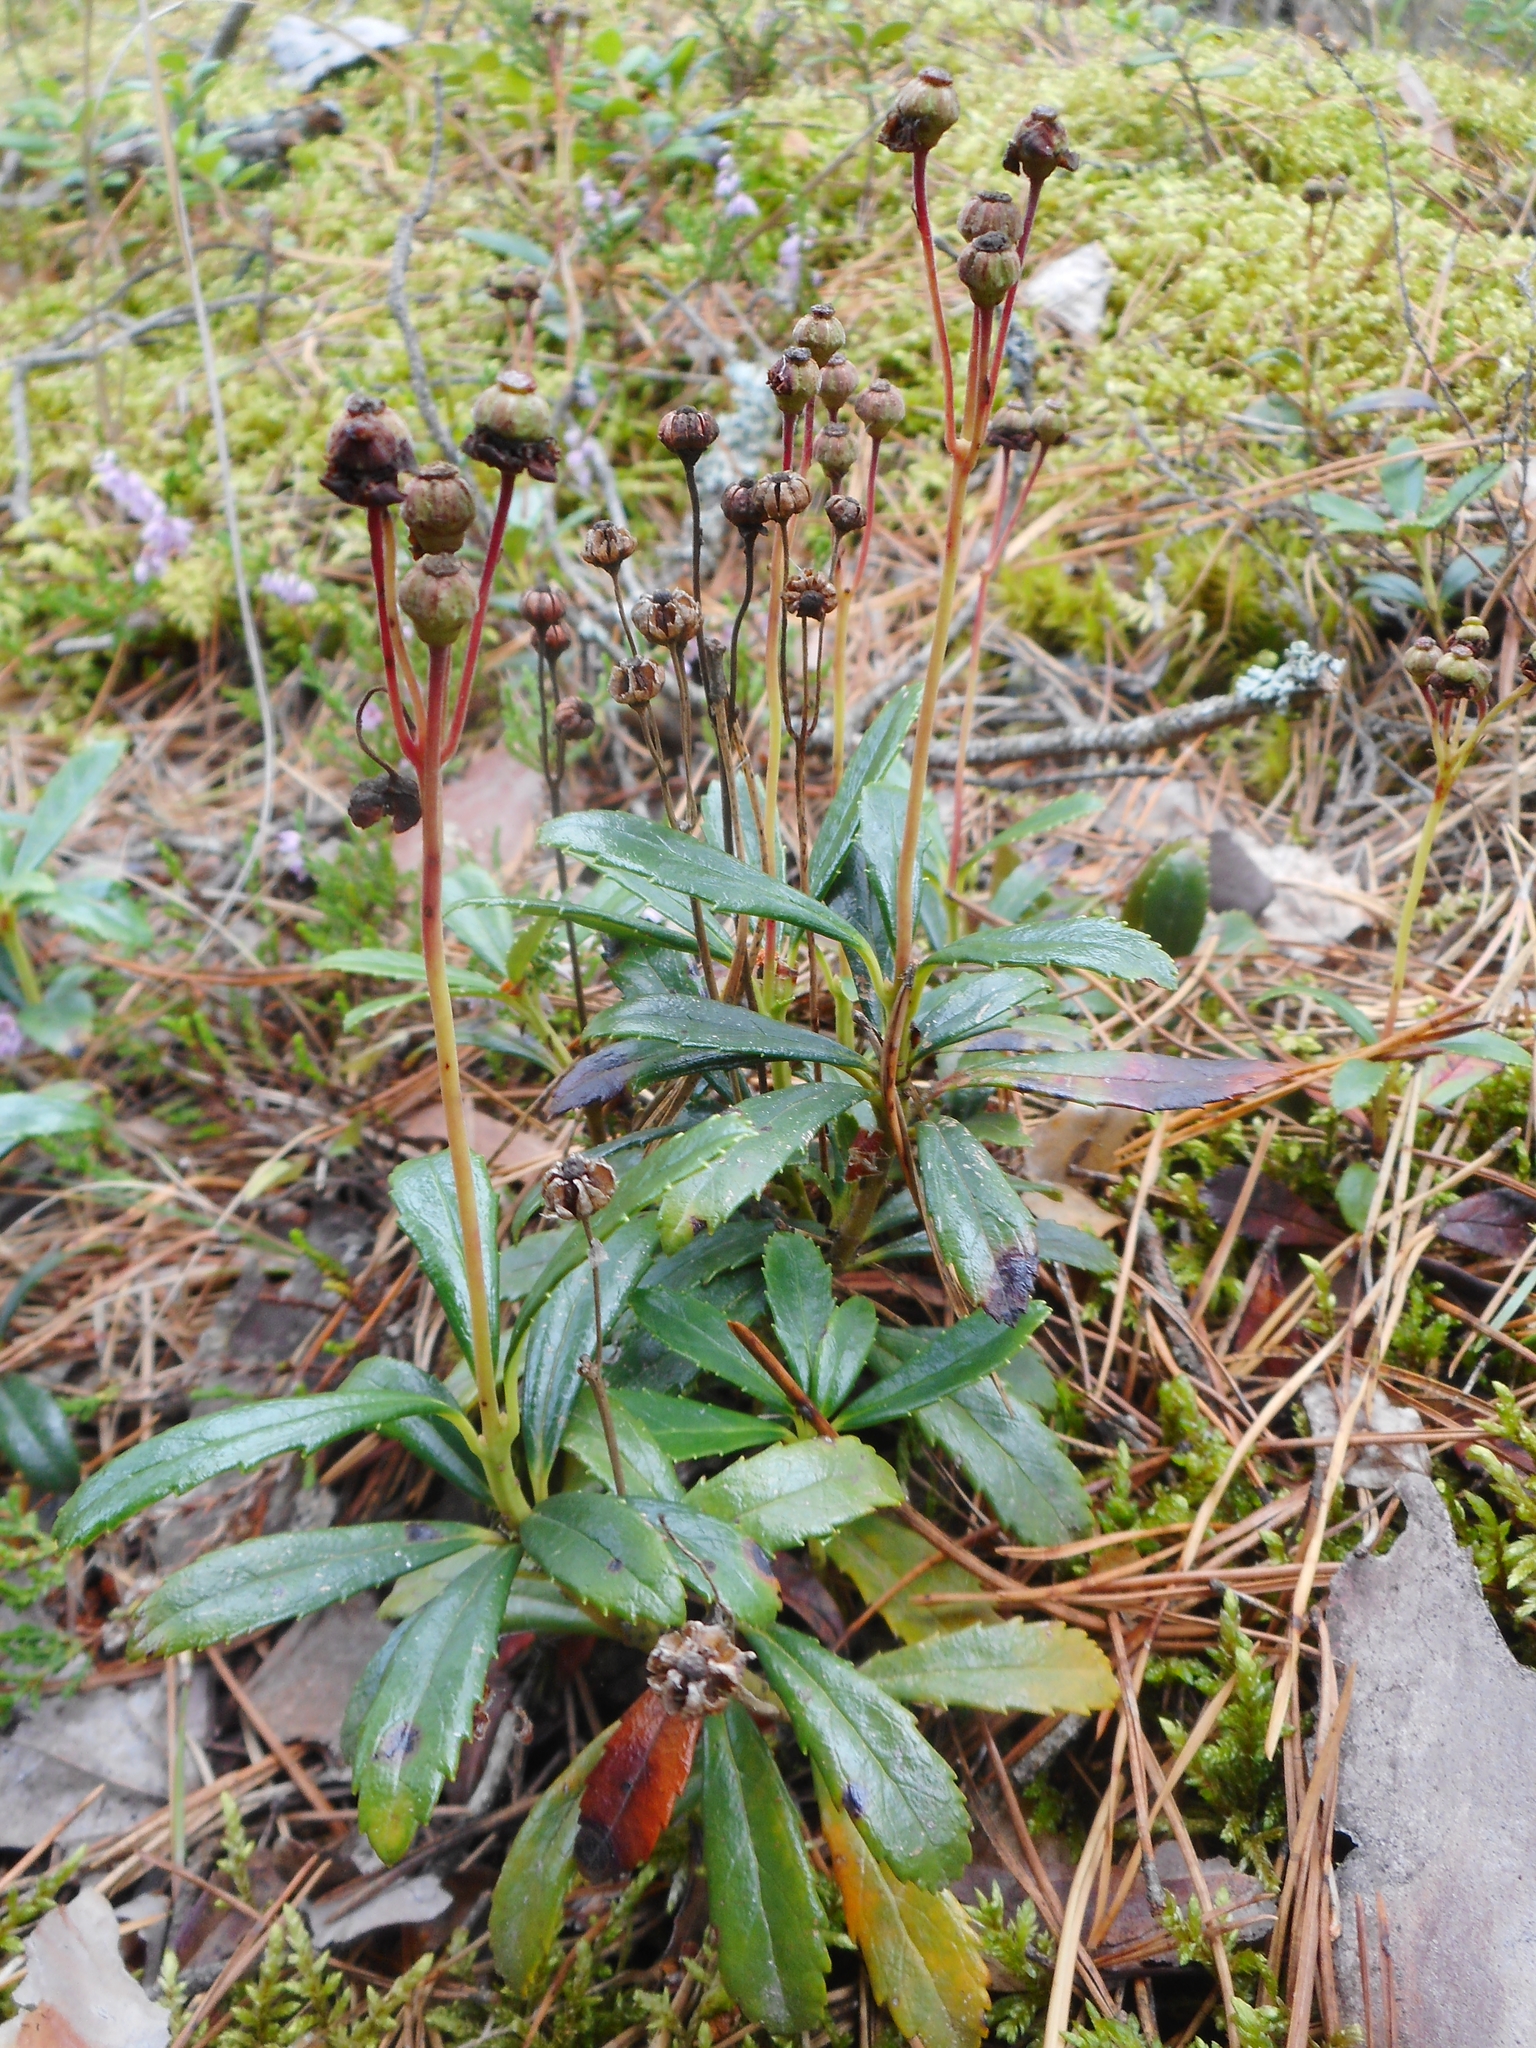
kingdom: Plantae
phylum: Tracheophyta
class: Magnoliopsida
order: Ericales
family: Ericaceae
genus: Chimaphila
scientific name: Chimaphila umbellata
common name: Pipsissewa
